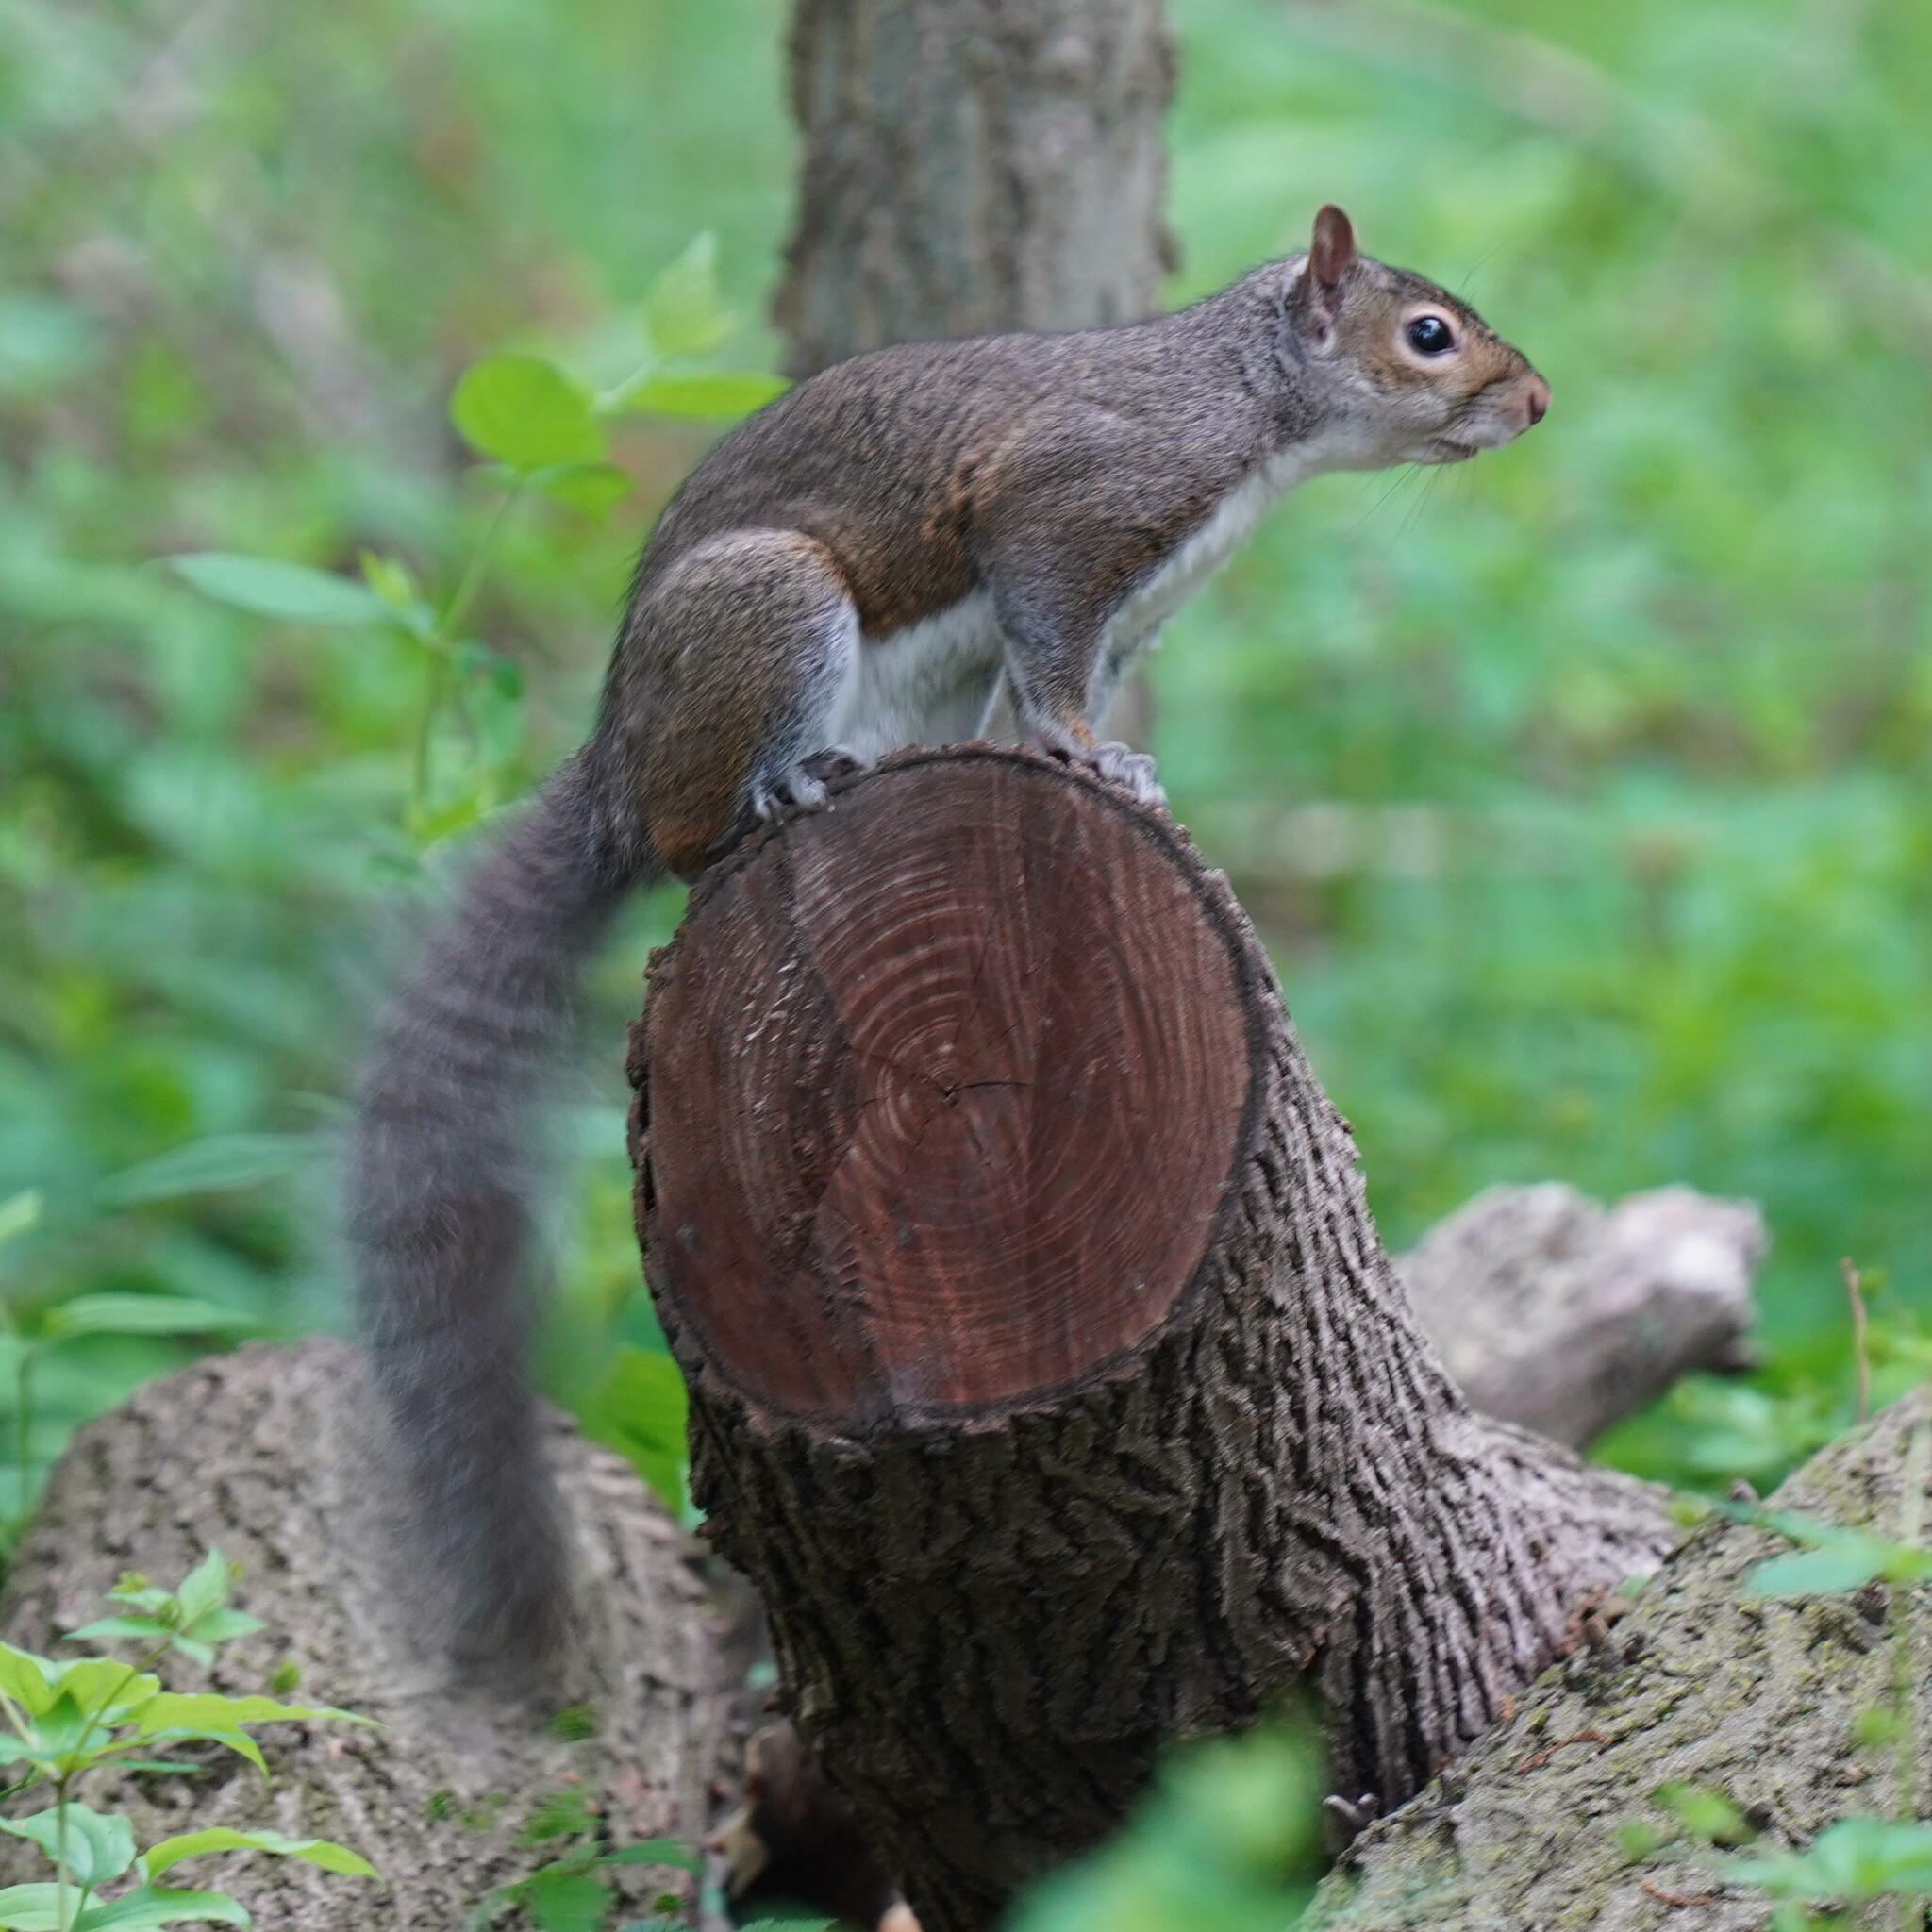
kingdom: Animalia
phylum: Chordata
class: Mammalia
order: Rodentia
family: Sciuridae
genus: Sciurus
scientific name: Sciurus carolinensis
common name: Eastern gray squirrel
